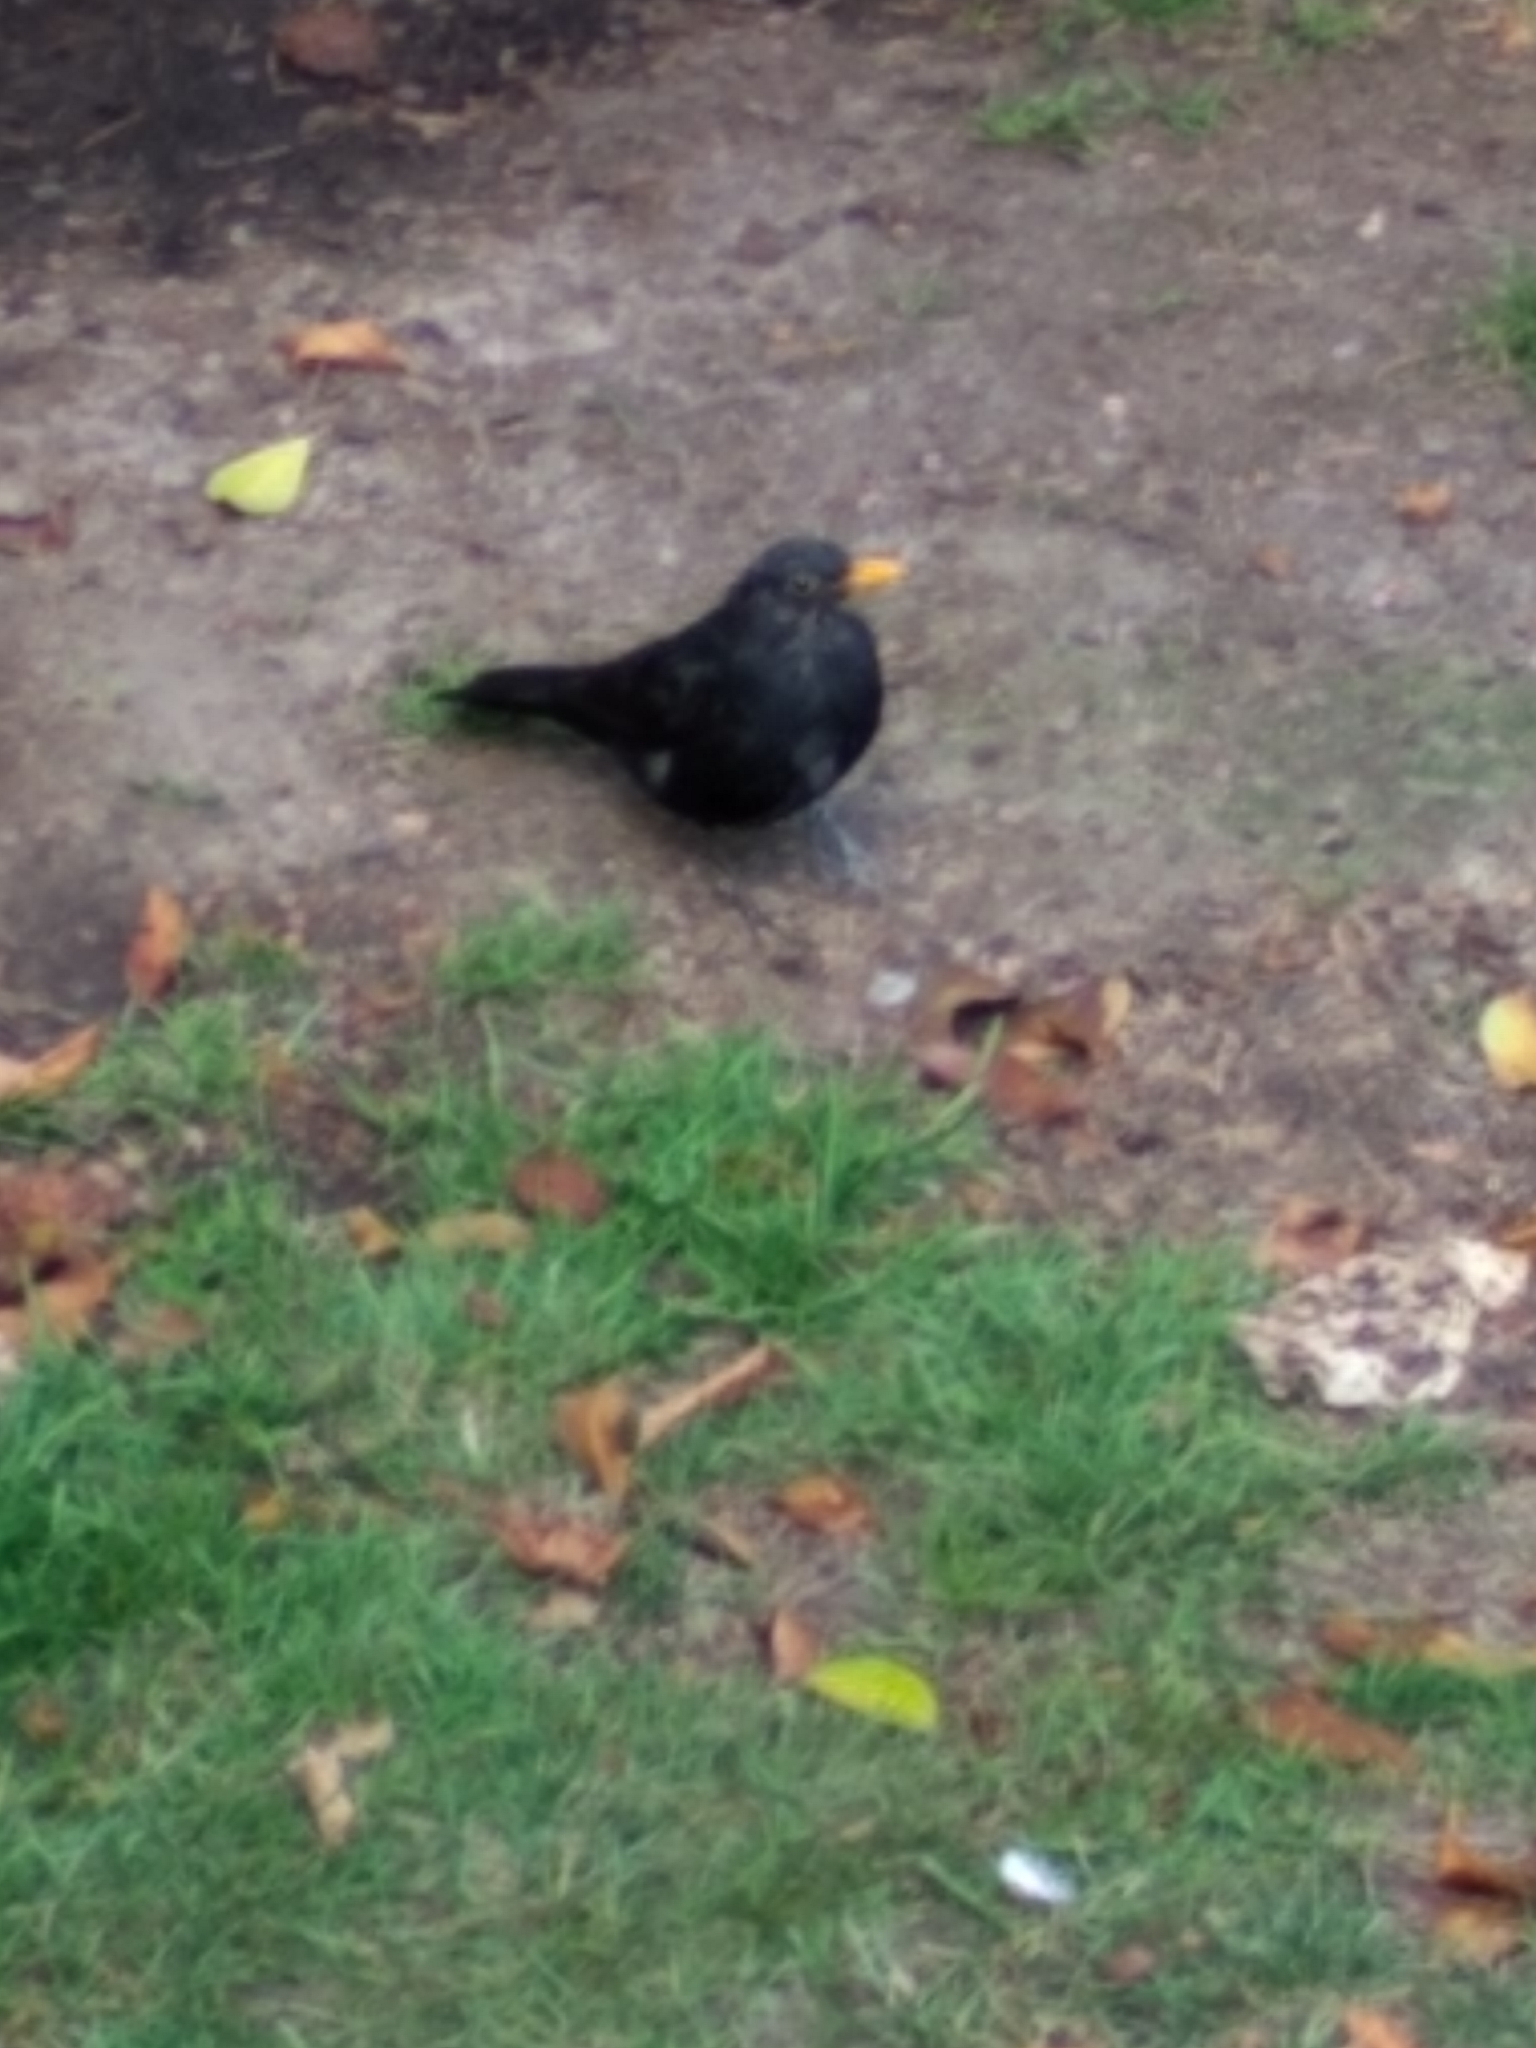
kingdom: Animalia
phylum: Chordata
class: Aves
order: Passeriformes
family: Turdidae
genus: Turdus
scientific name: Turdus merula
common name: Common blackbird
